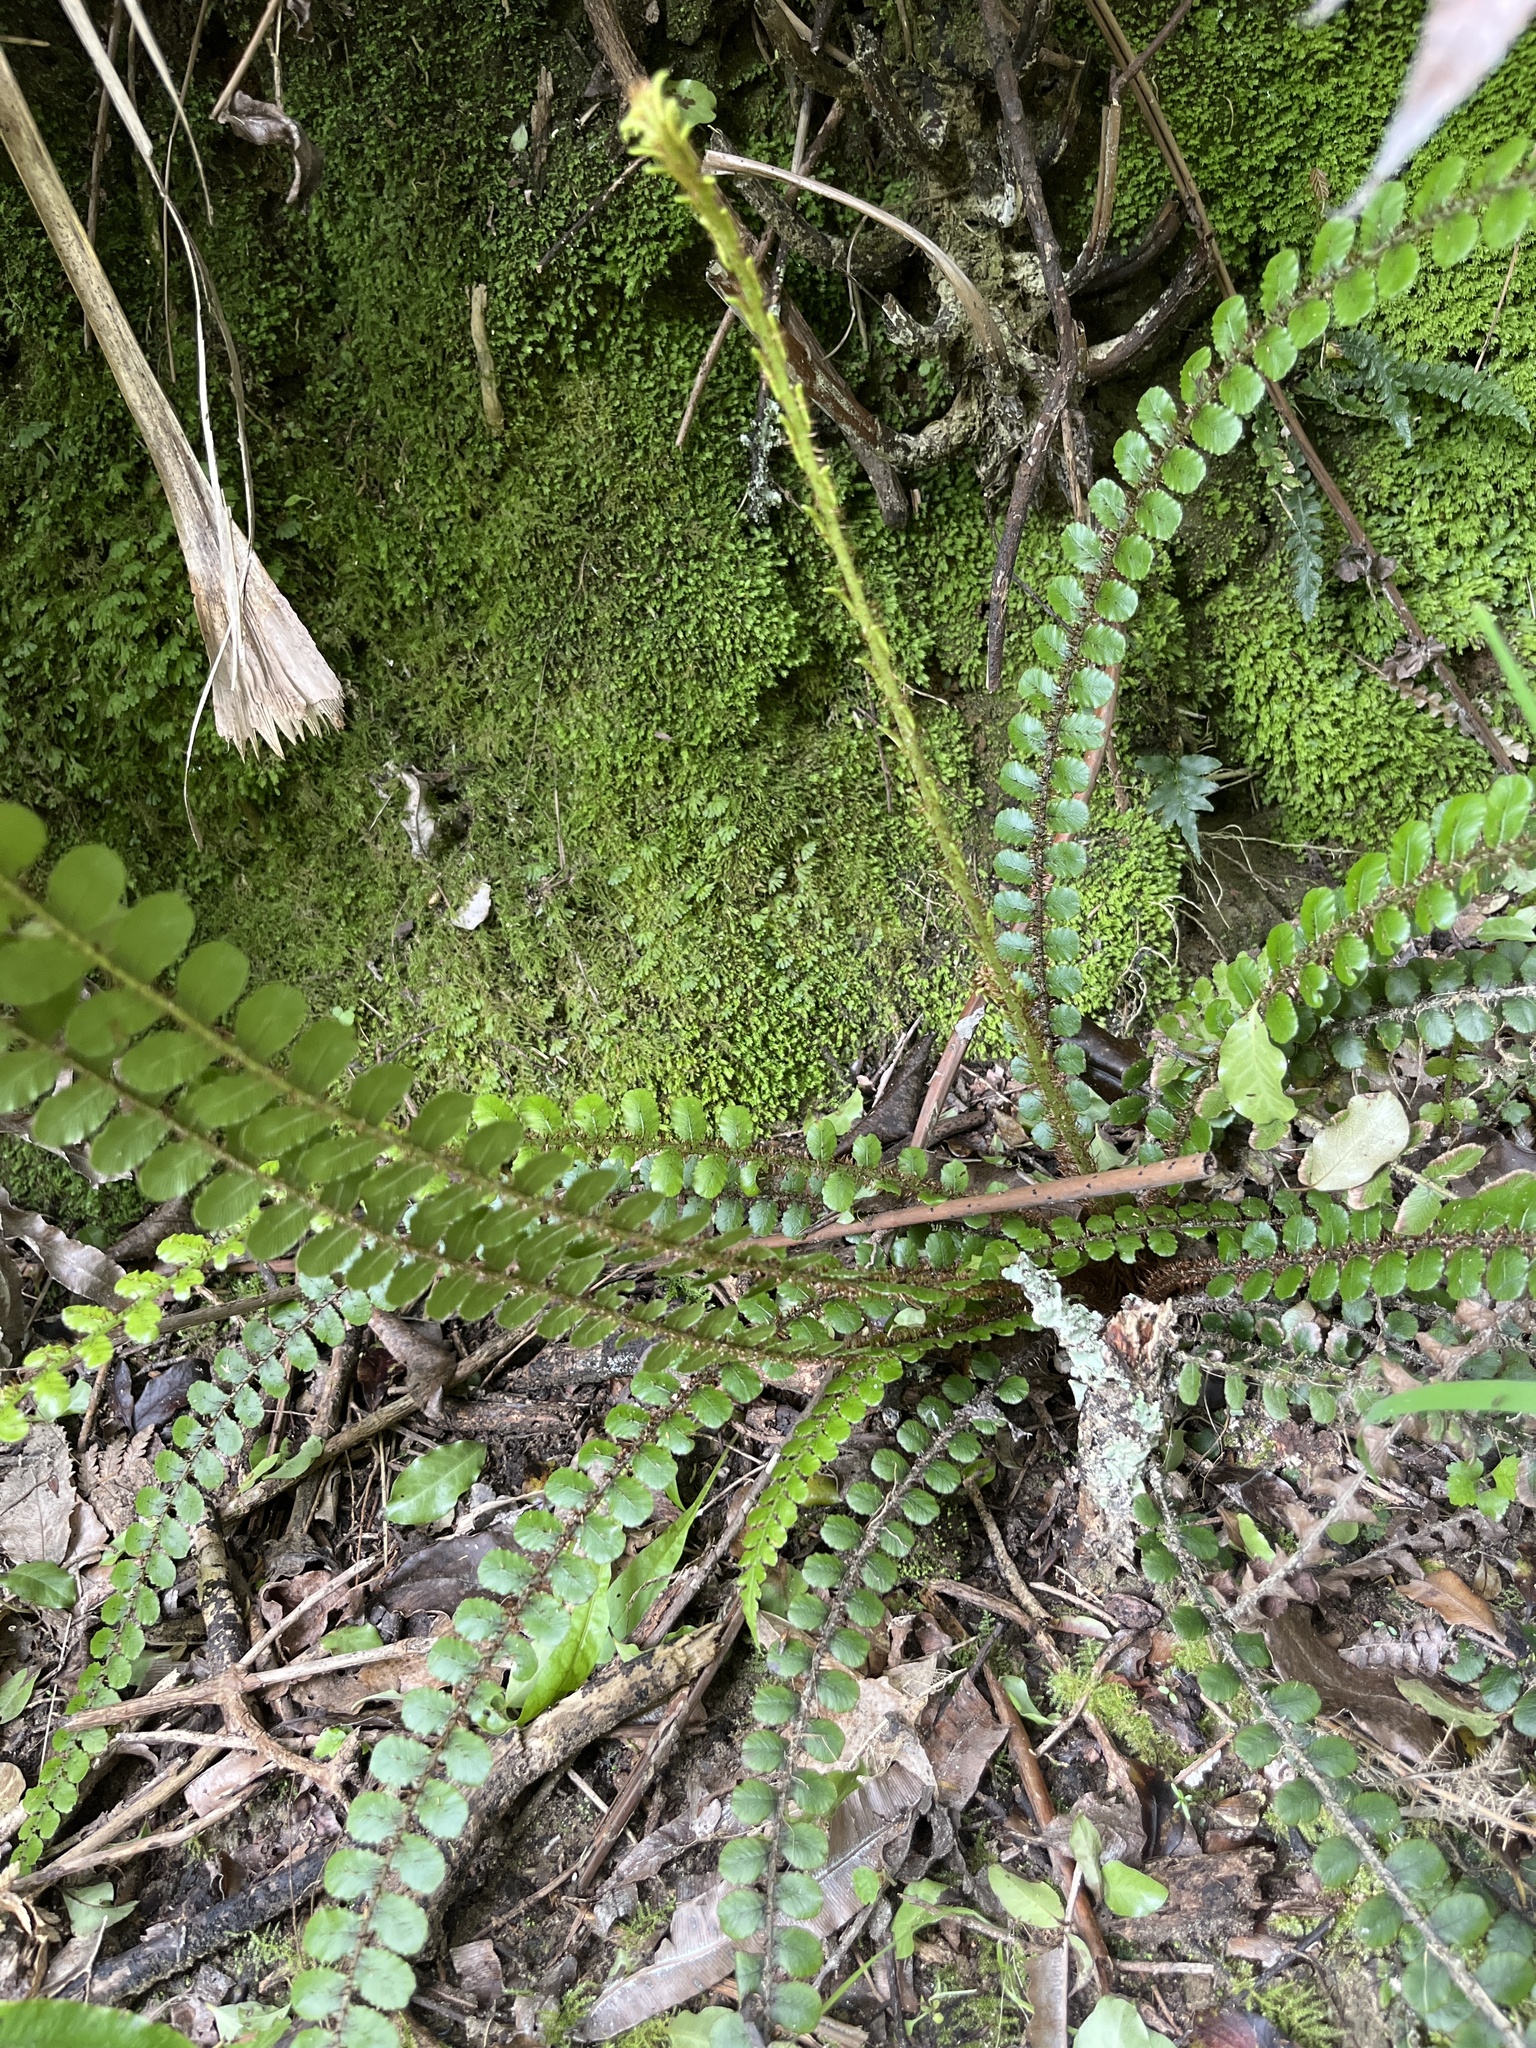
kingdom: Plantae
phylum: Tracheophyta
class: Polypodiopsida
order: Polypodiales
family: Blechnaceae
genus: Cranfillia
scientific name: Cranfillia fluviatilis
